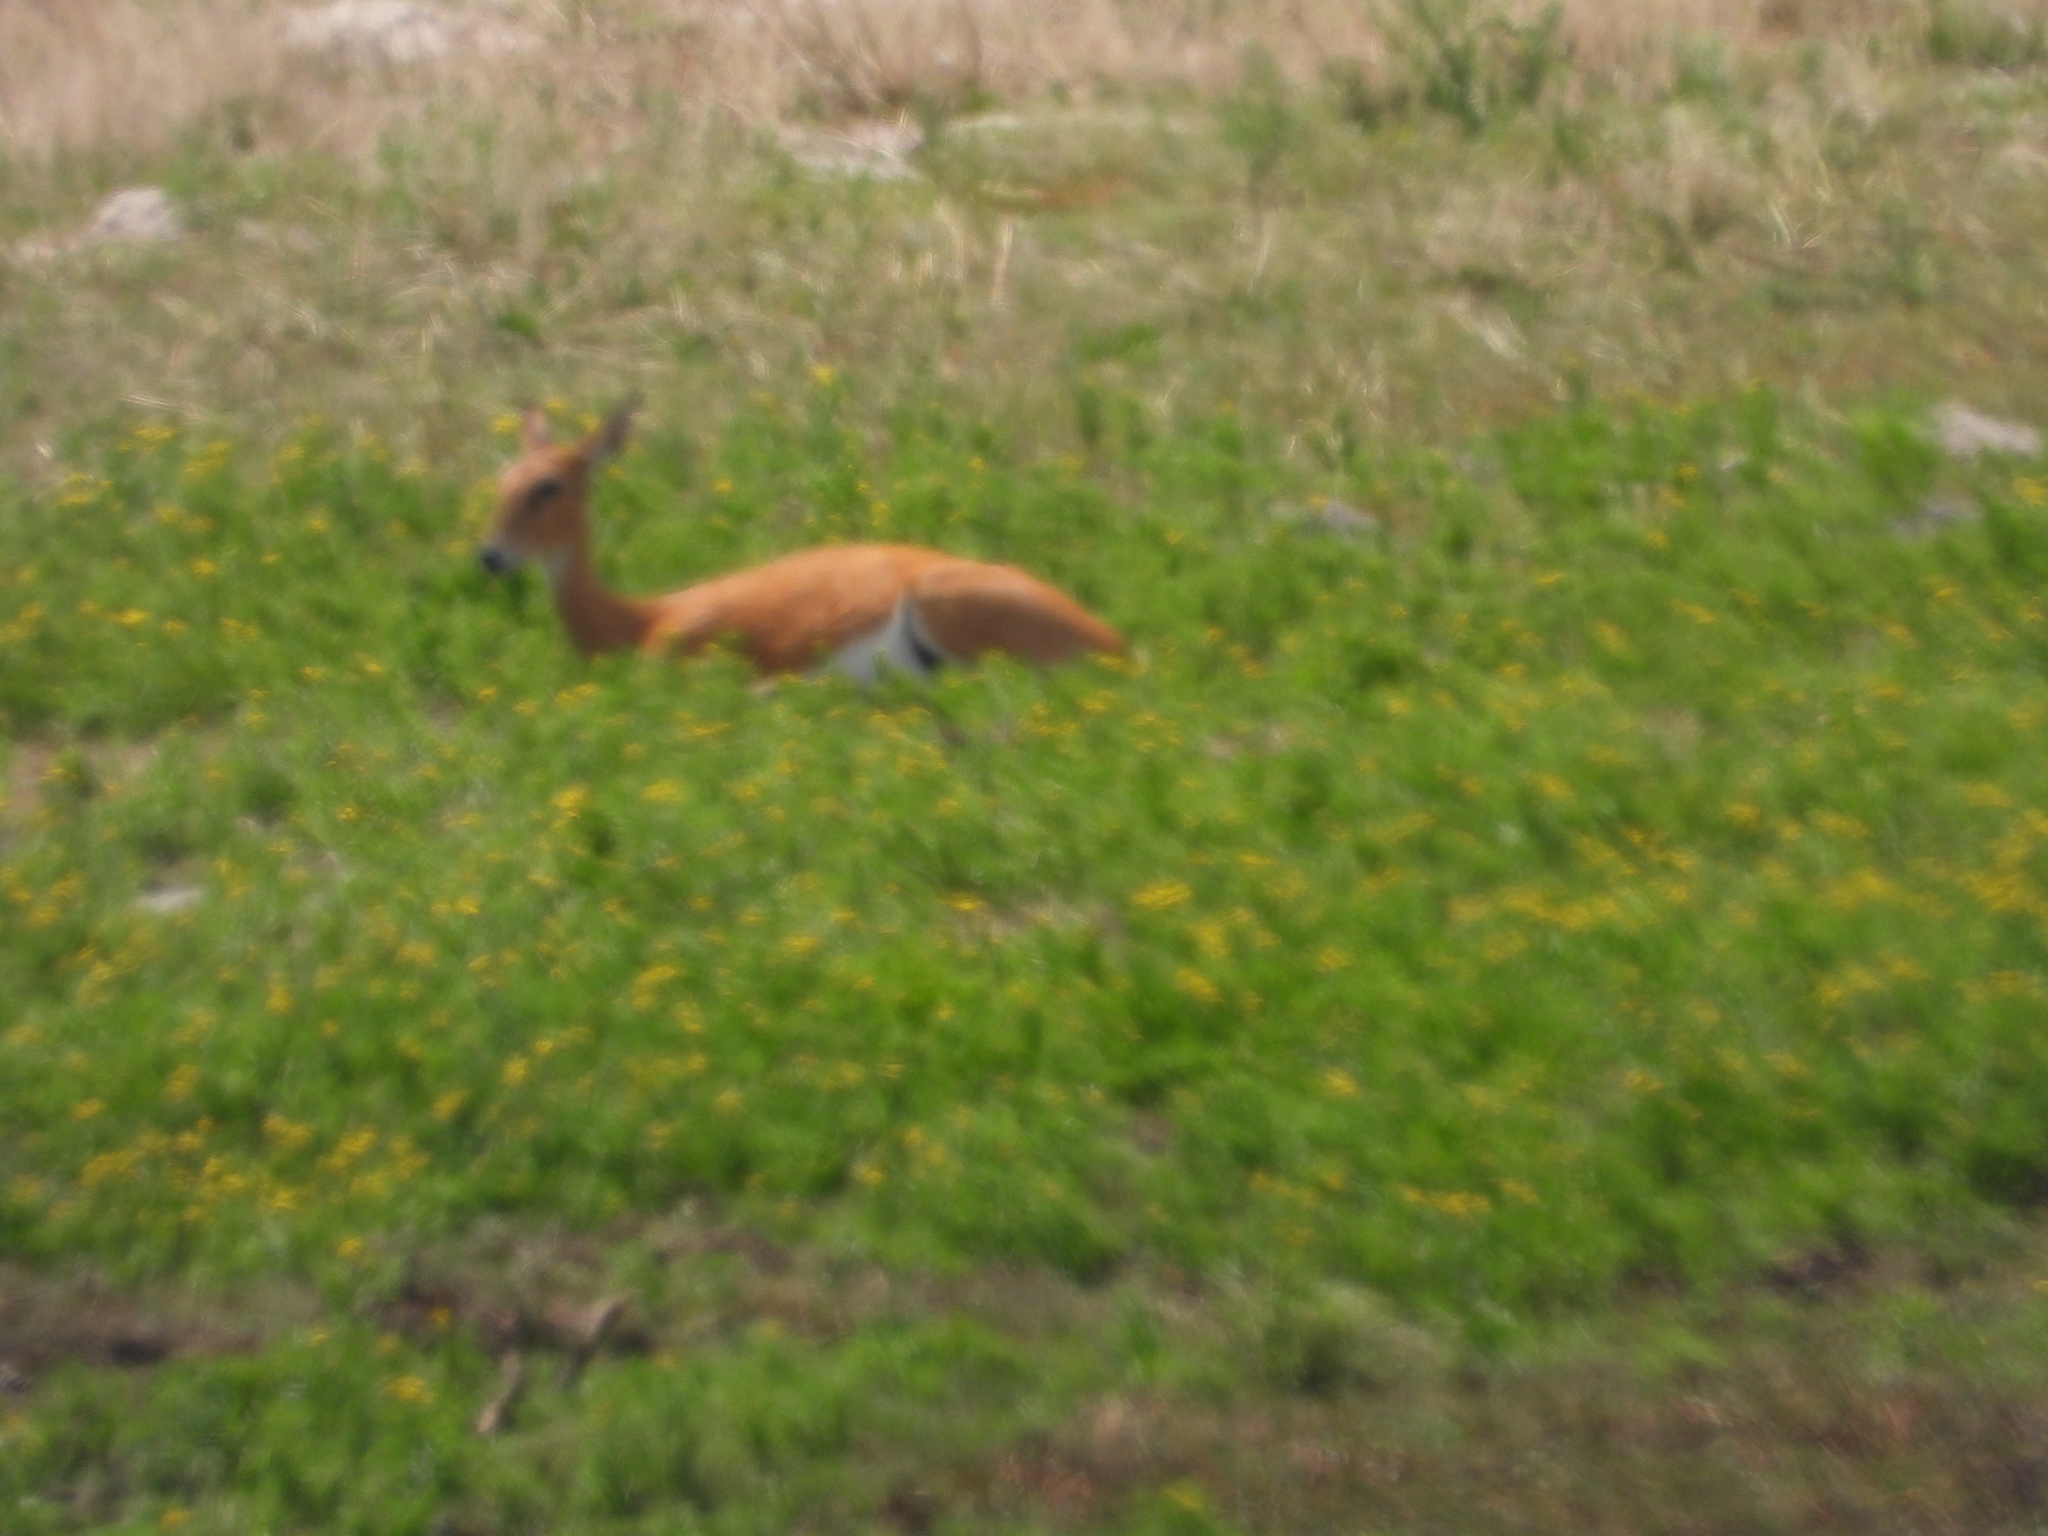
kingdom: Animalia
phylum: Chordata
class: Mammalia
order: Artiodactyla
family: Bovidae
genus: Ourebia
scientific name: Ourebia ourebi
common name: Oribi
